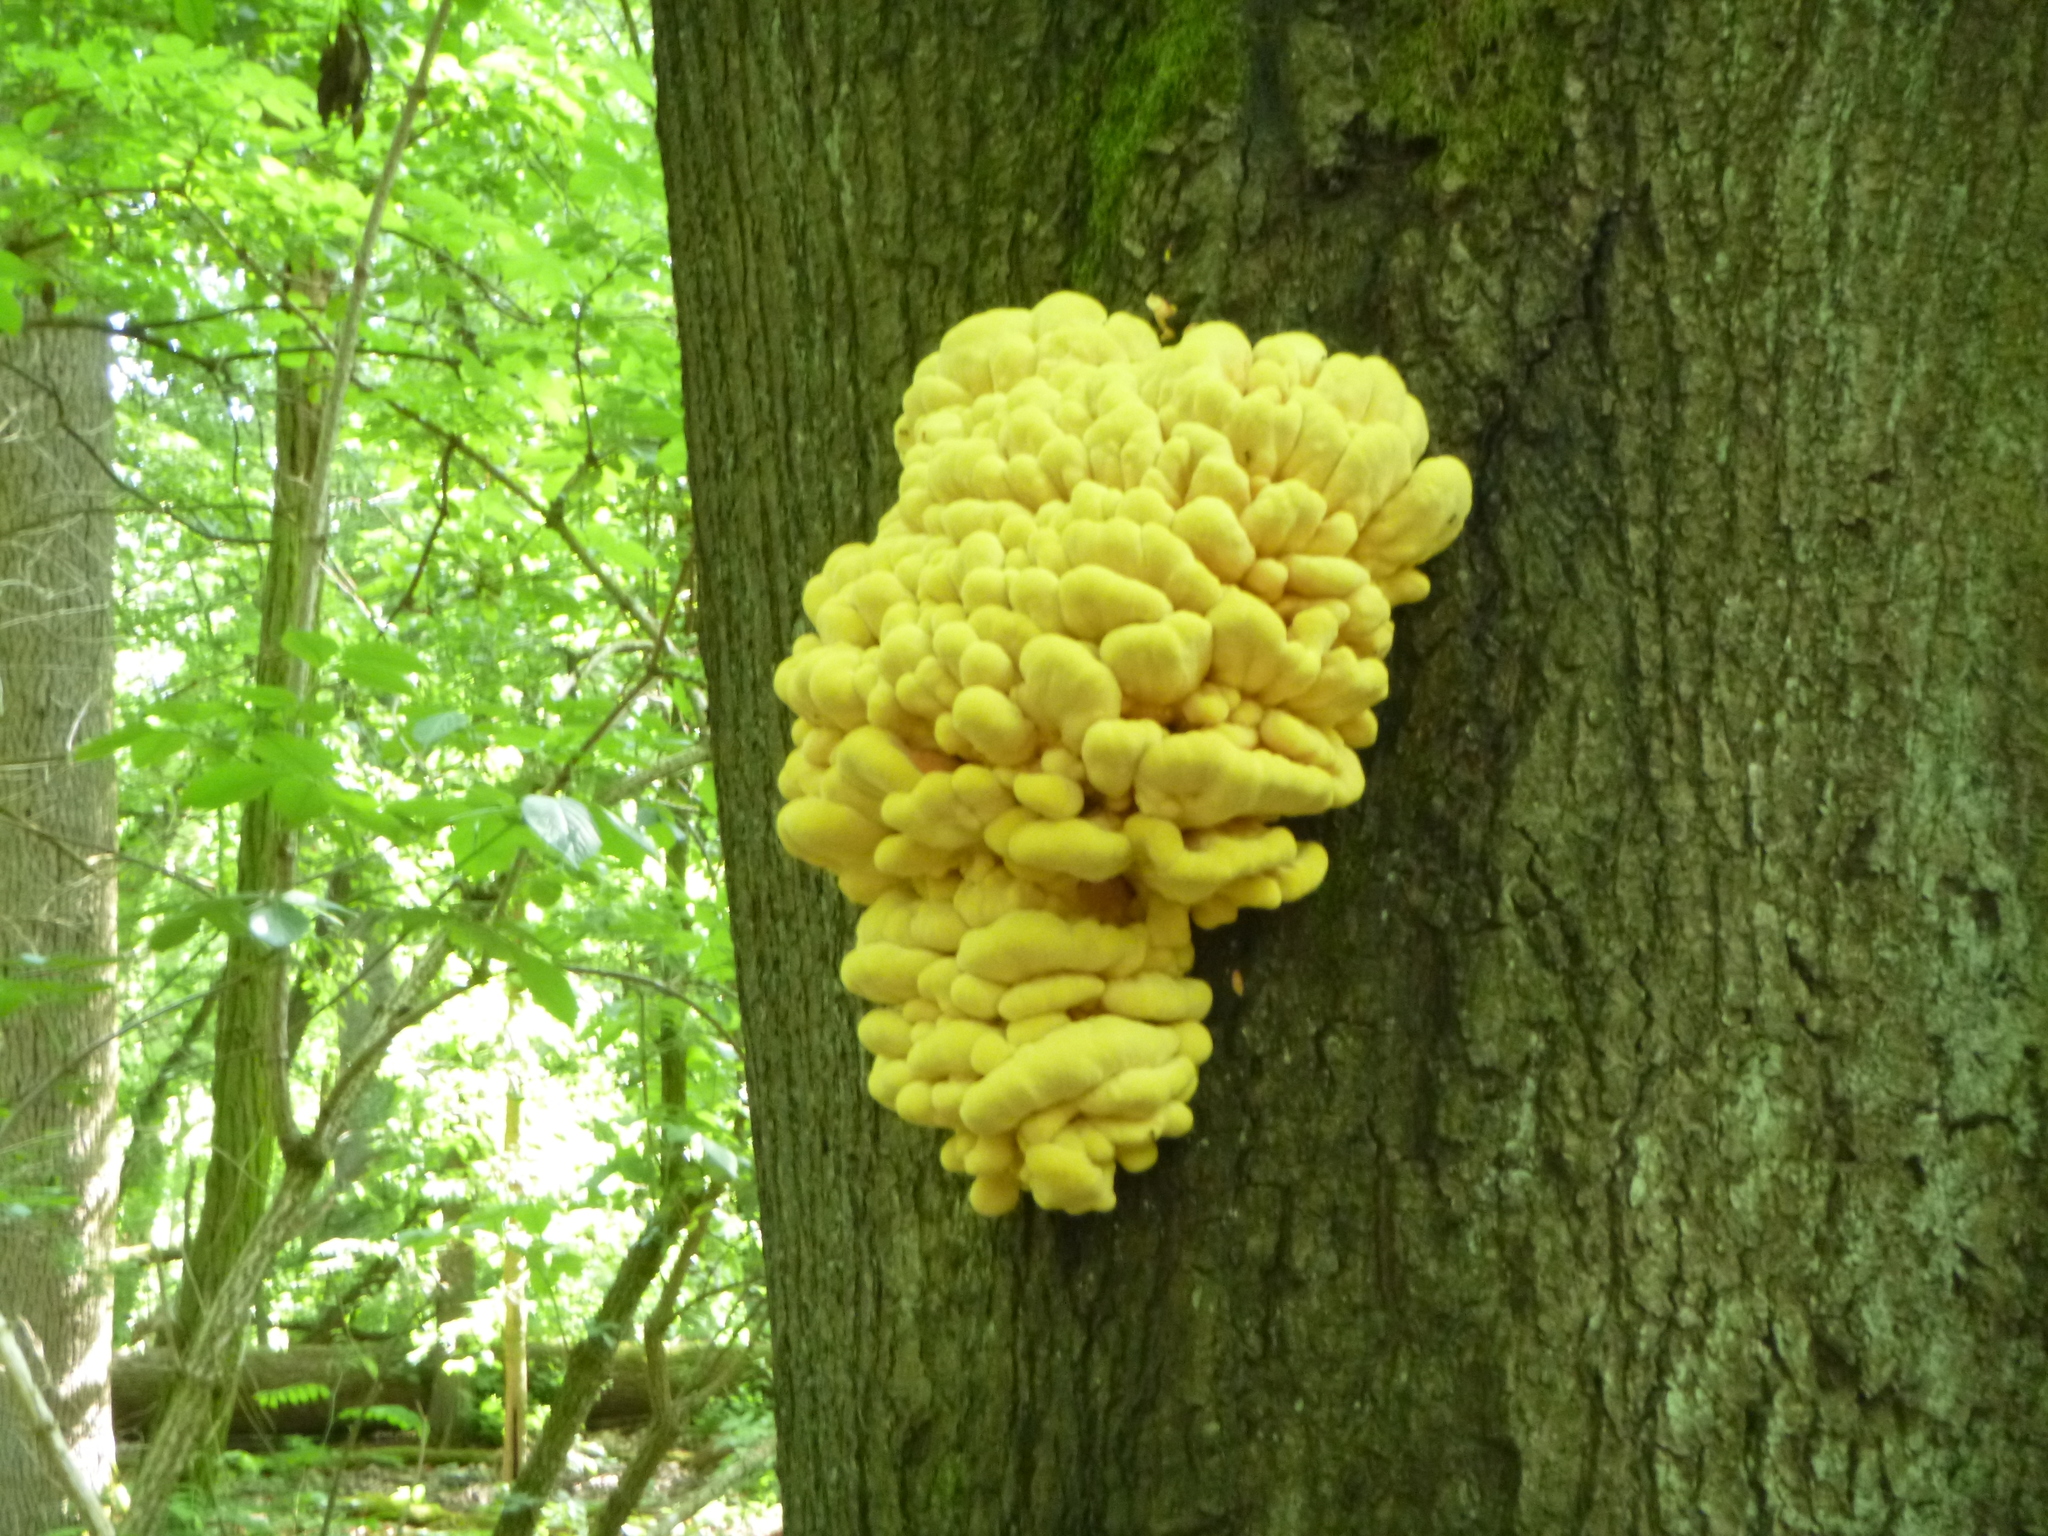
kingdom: Fungi
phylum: Basidiomycota
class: Agaricomycetes
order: Polyporales
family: Laetiporaceae
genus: Laetiporus
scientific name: Laetiporus sulphureus
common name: Chicken of the woods
